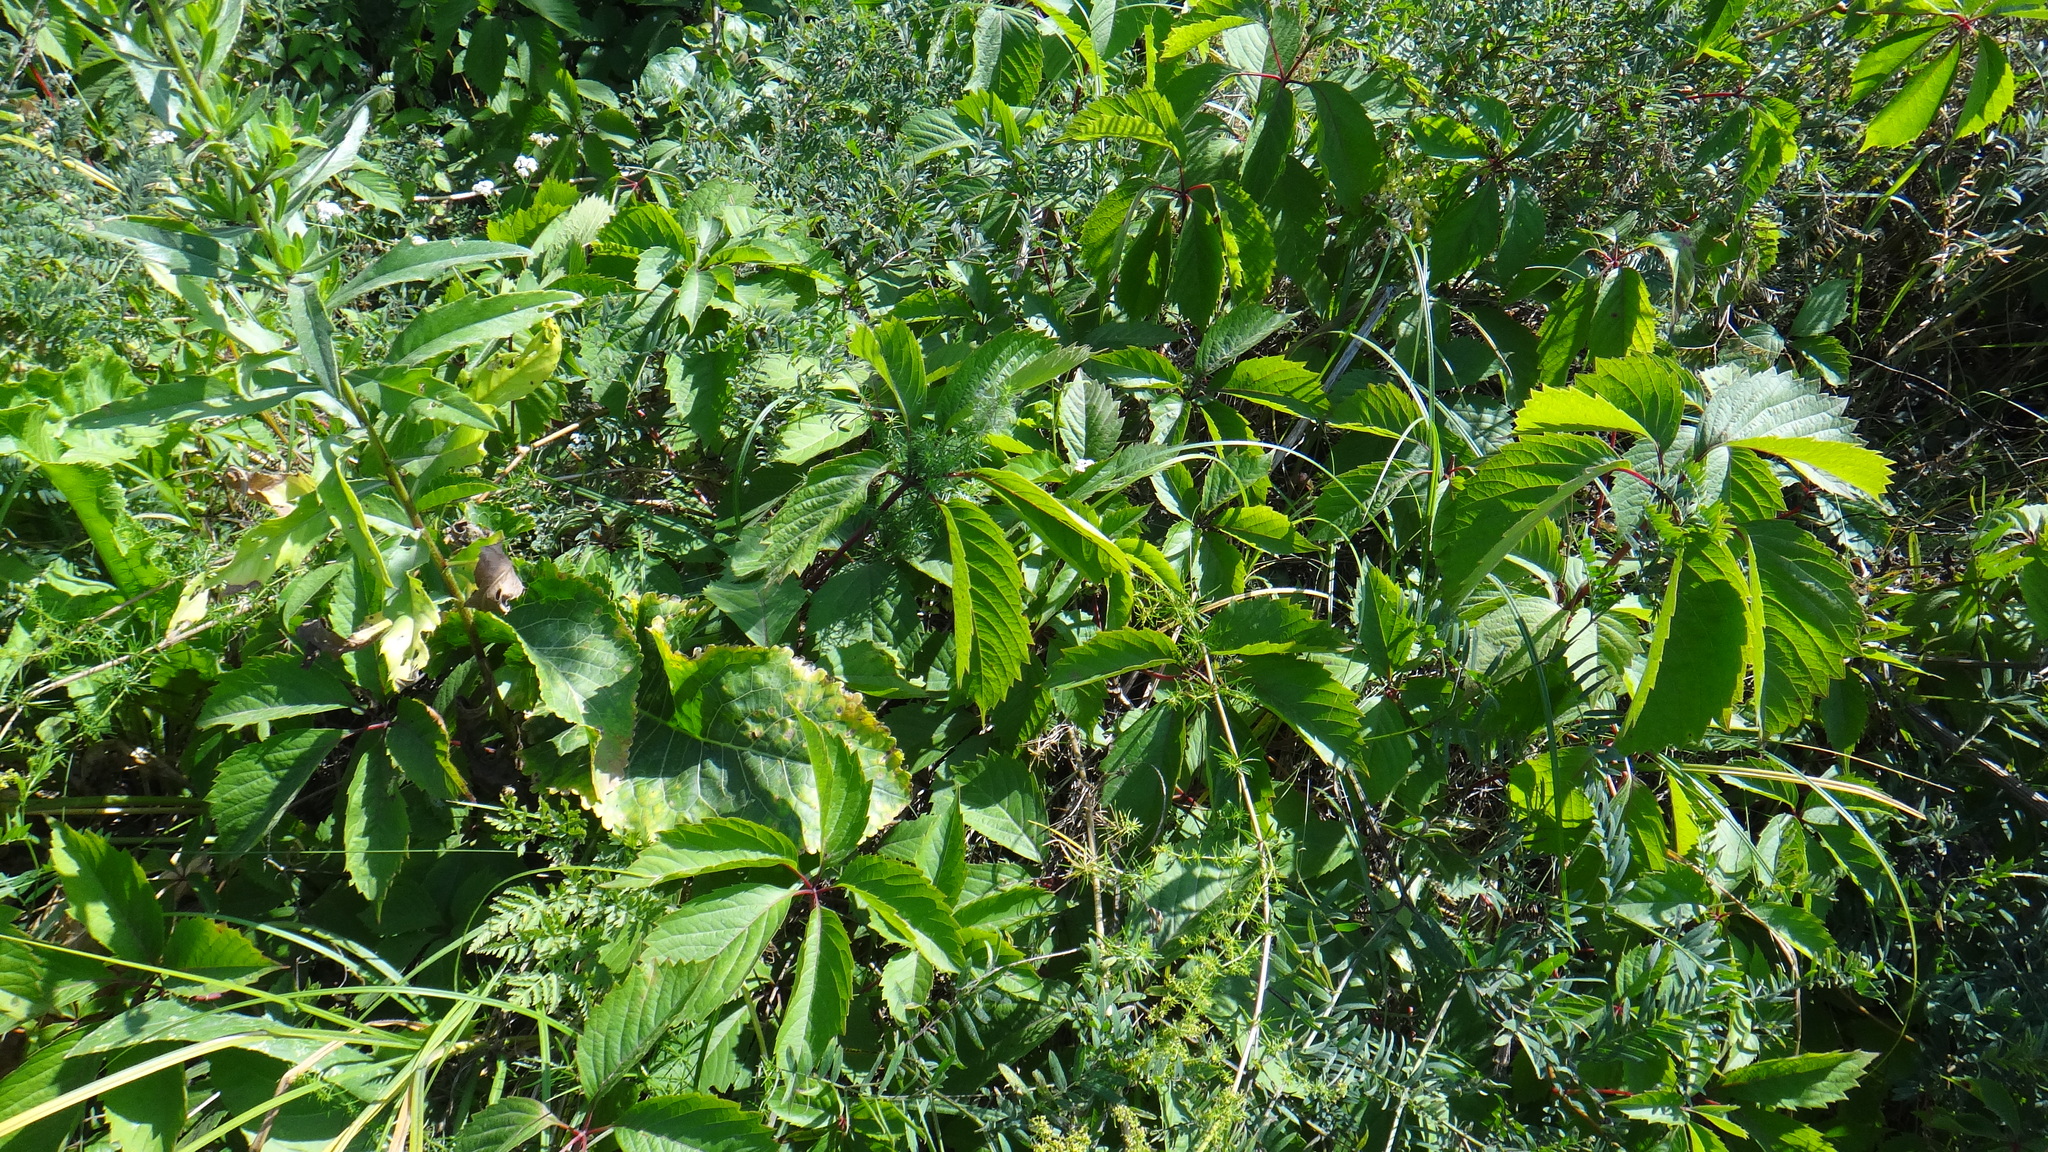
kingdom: Plantae
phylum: Tracheophyta
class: Magnoliopsida
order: Vitales
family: Vitaceae
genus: Parthenocissus
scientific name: Parthenocissus inserta
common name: False virginia-creeper
